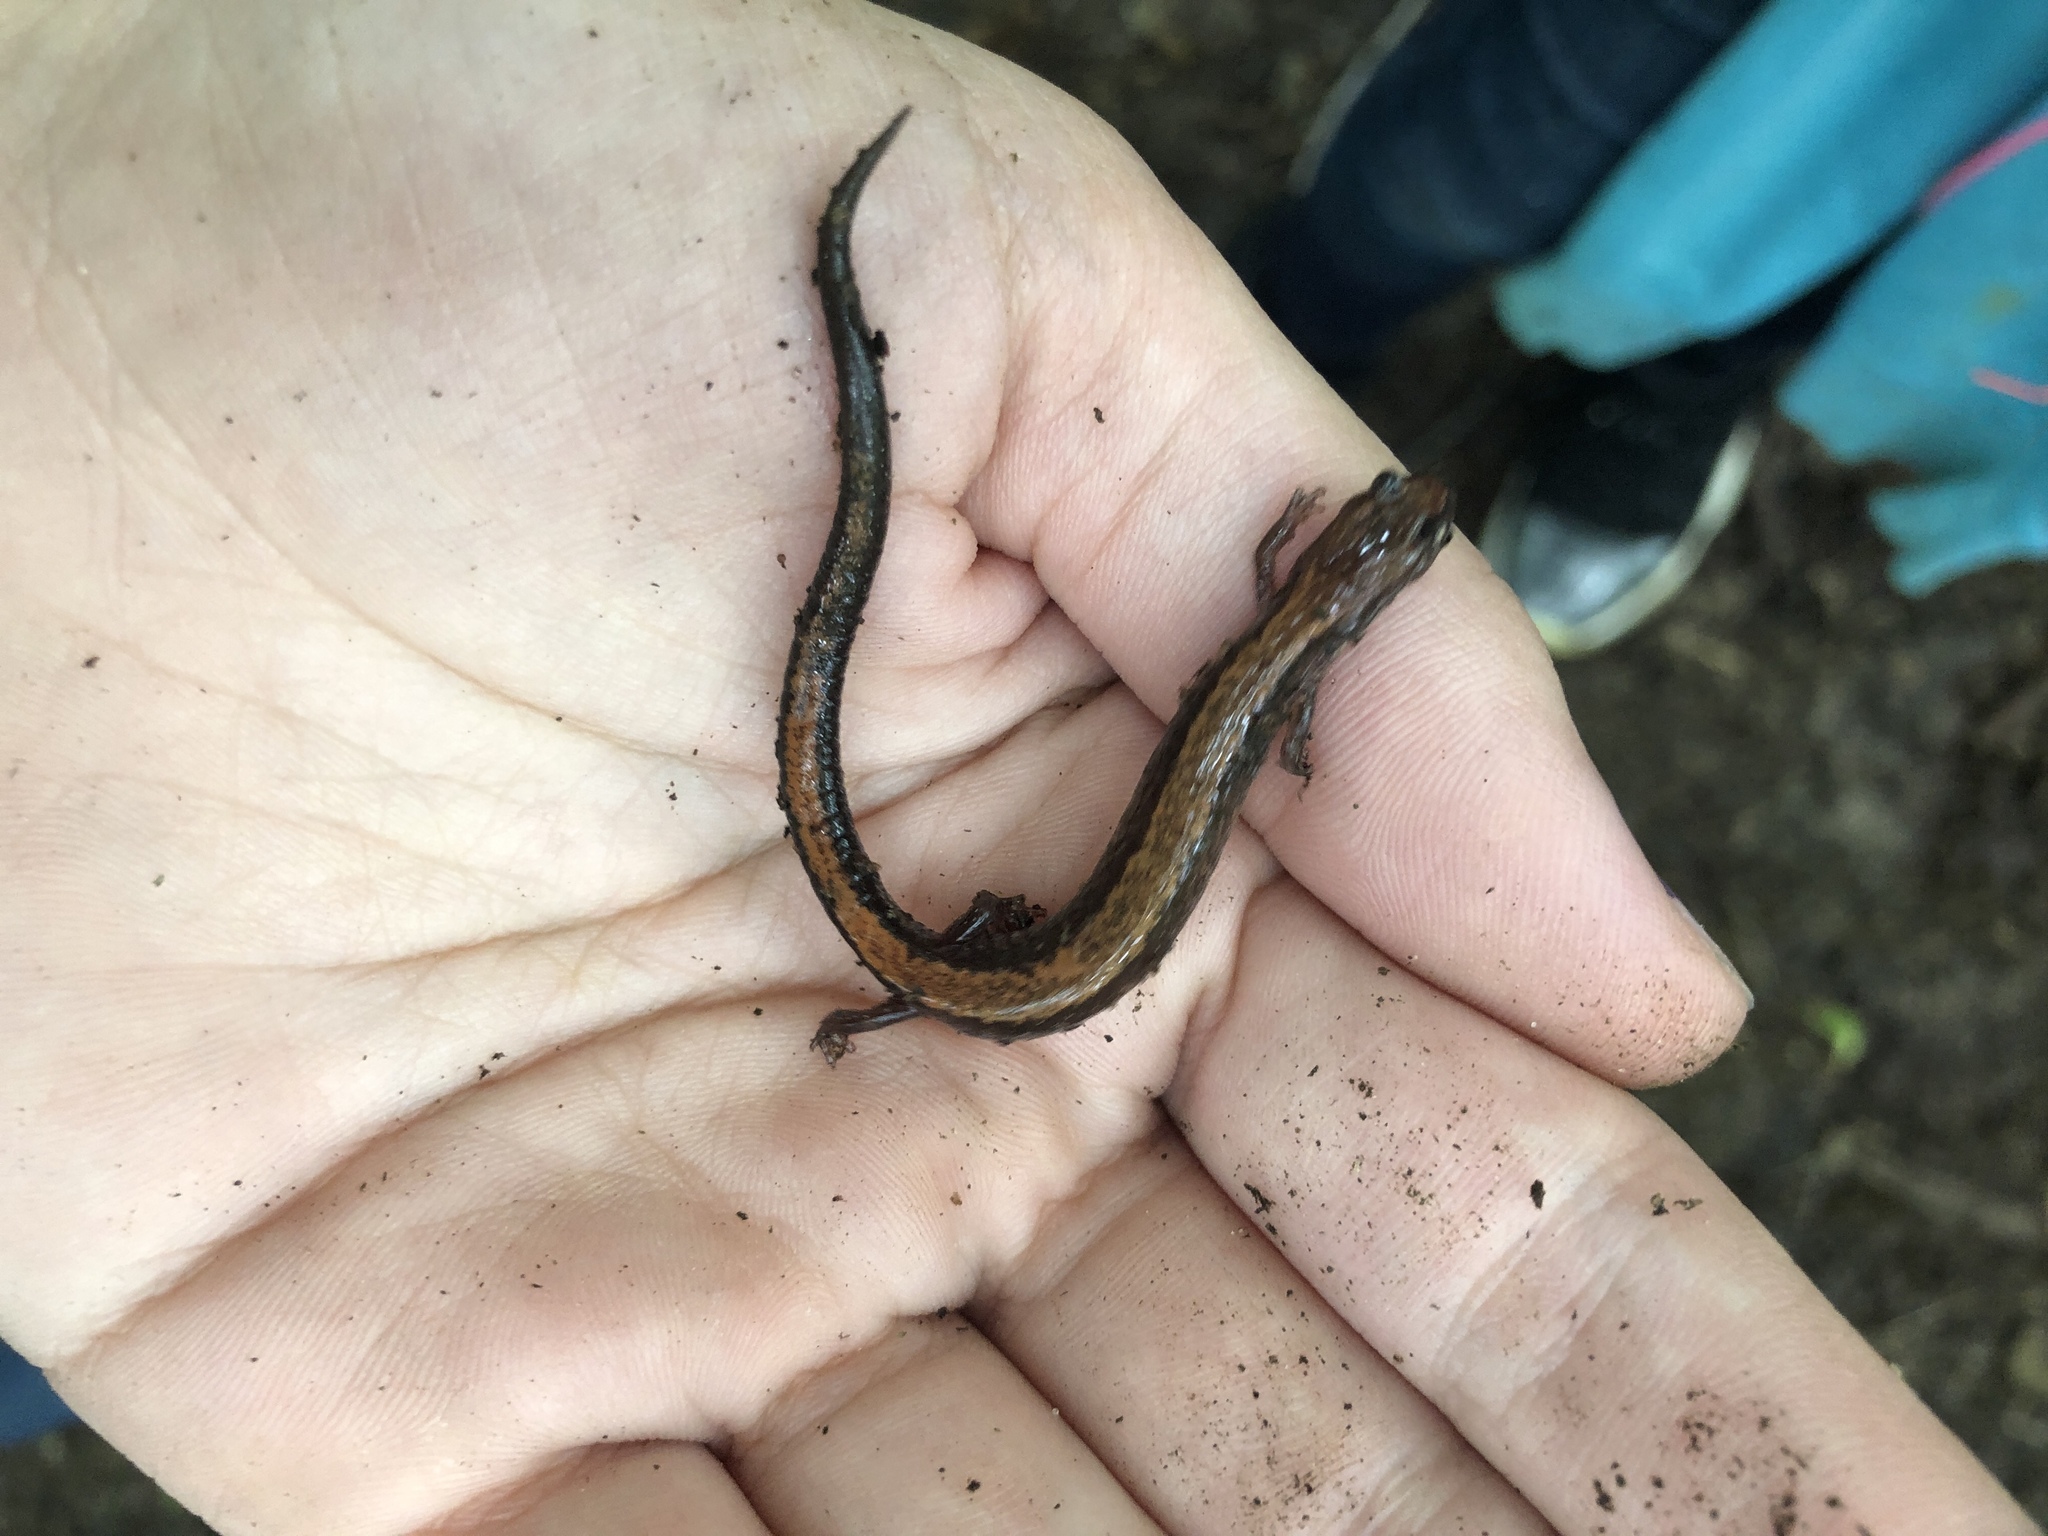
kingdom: Animalia
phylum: Chordata
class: Amphibia
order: Caudata
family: Plethodontidae
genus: Plethodon
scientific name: Plethodon cinereus
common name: Redback salamander
